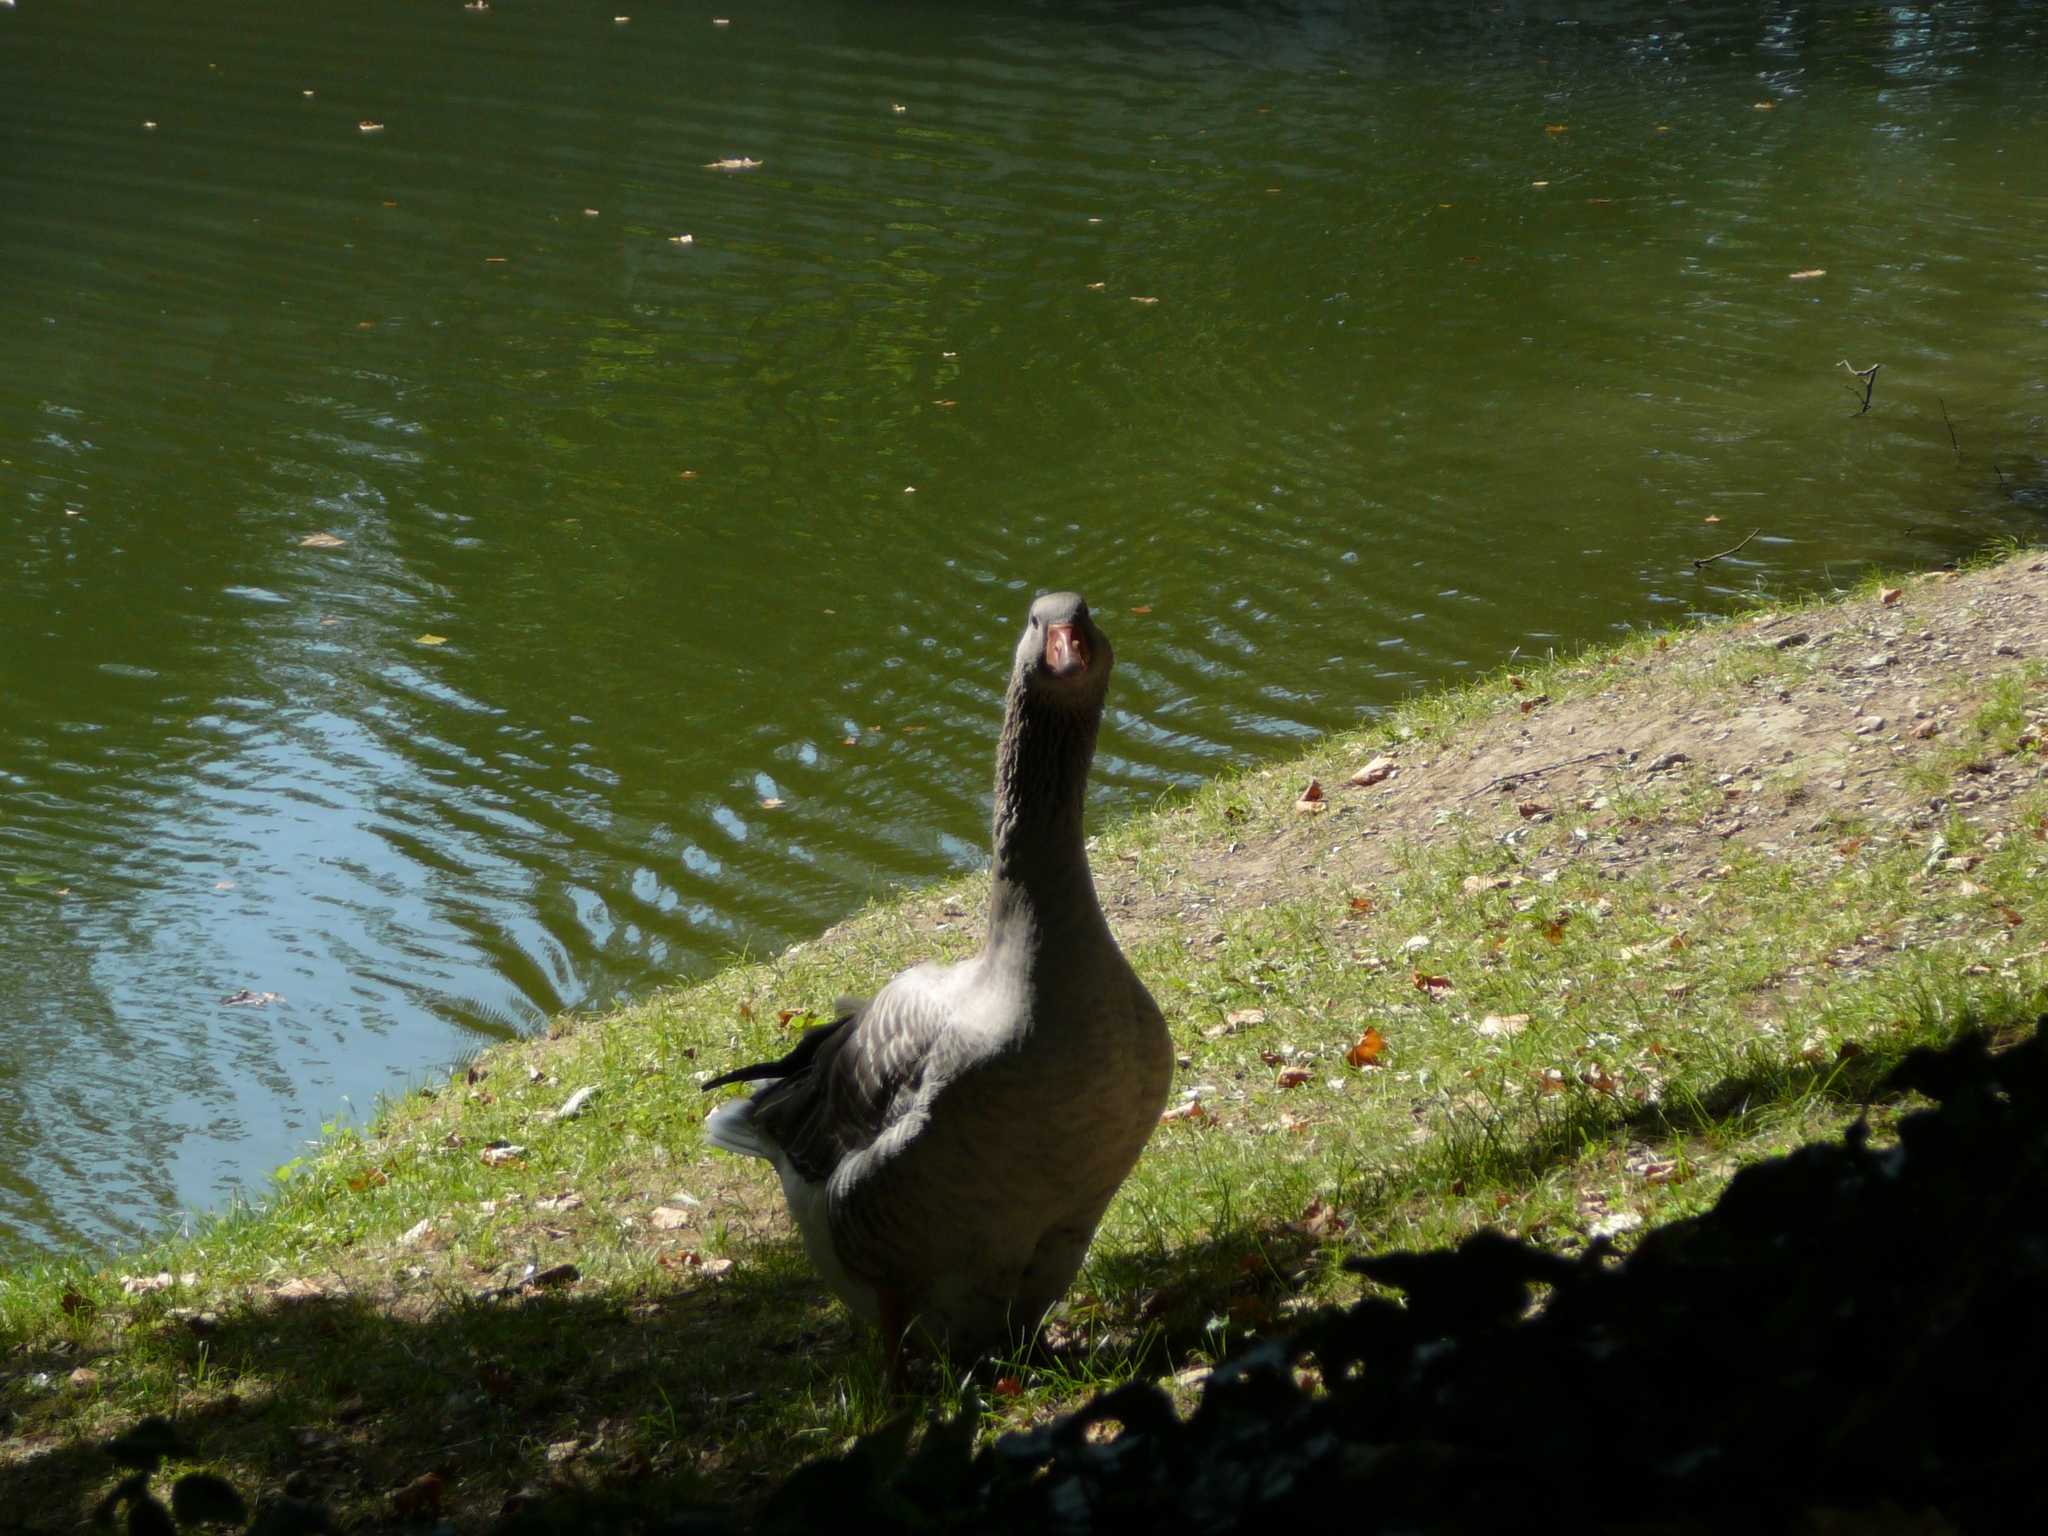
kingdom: Animalia
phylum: Chordata
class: Aves
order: Anseriformes
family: Anatidae
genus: Anser
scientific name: Anser anser
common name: Greylag goose
